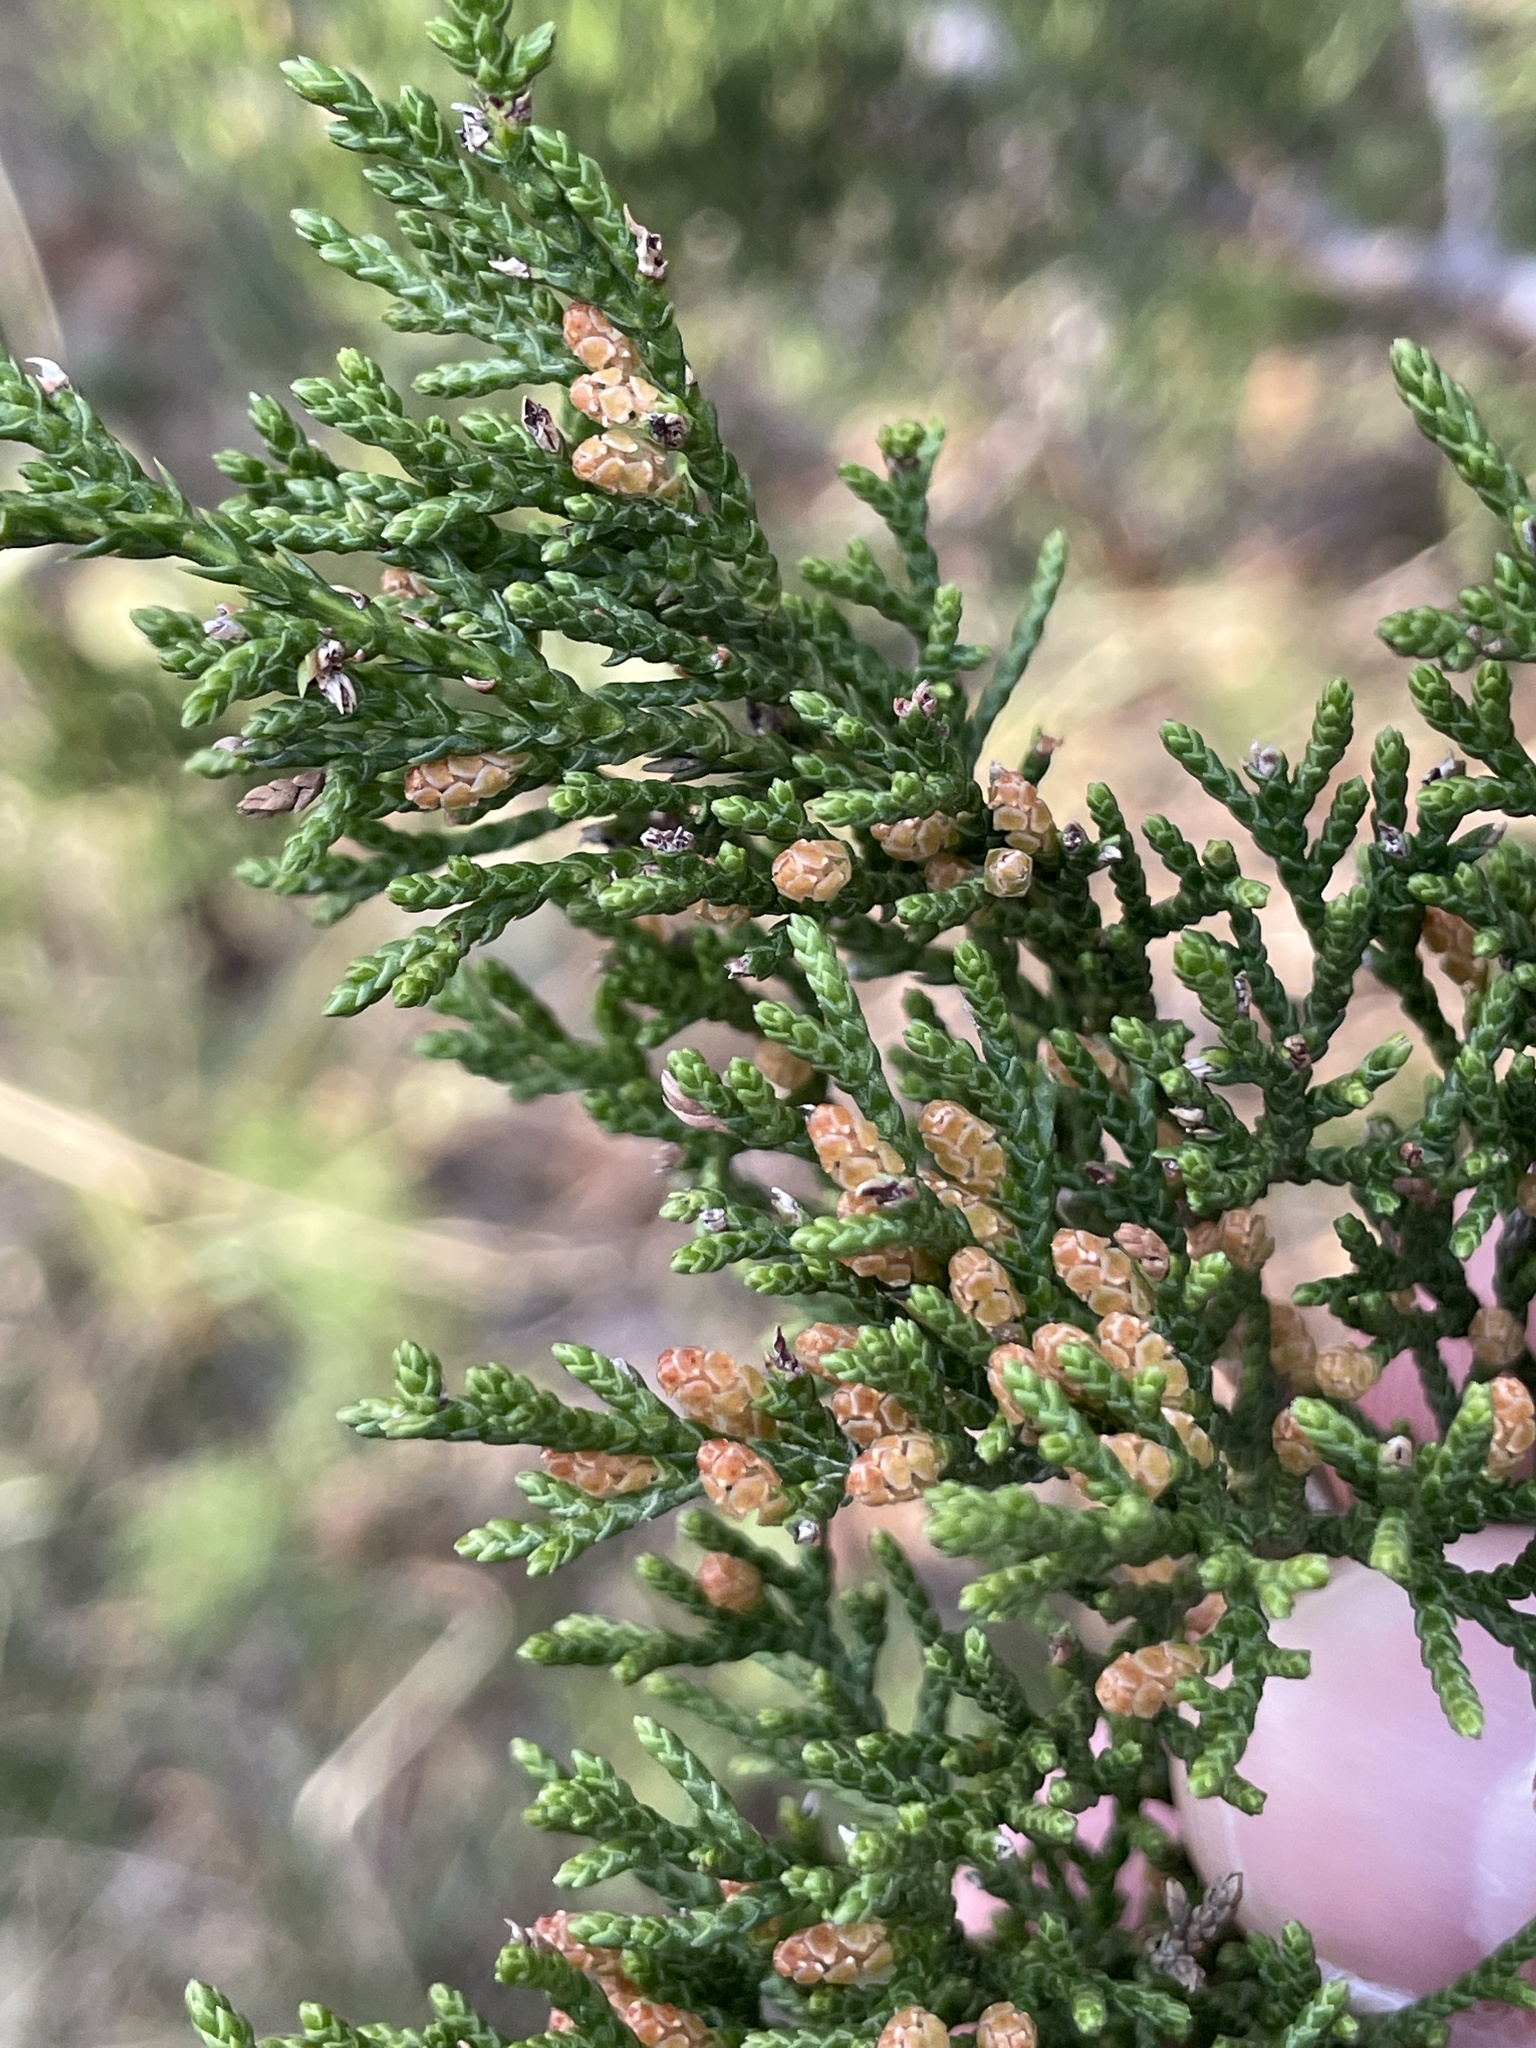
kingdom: Plantae
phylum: Tracheophyta
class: Pinopsida
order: Pinales
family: Cupressaceae
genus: Juniperus
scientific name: Juniperus ashei
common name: Mexican juniper
